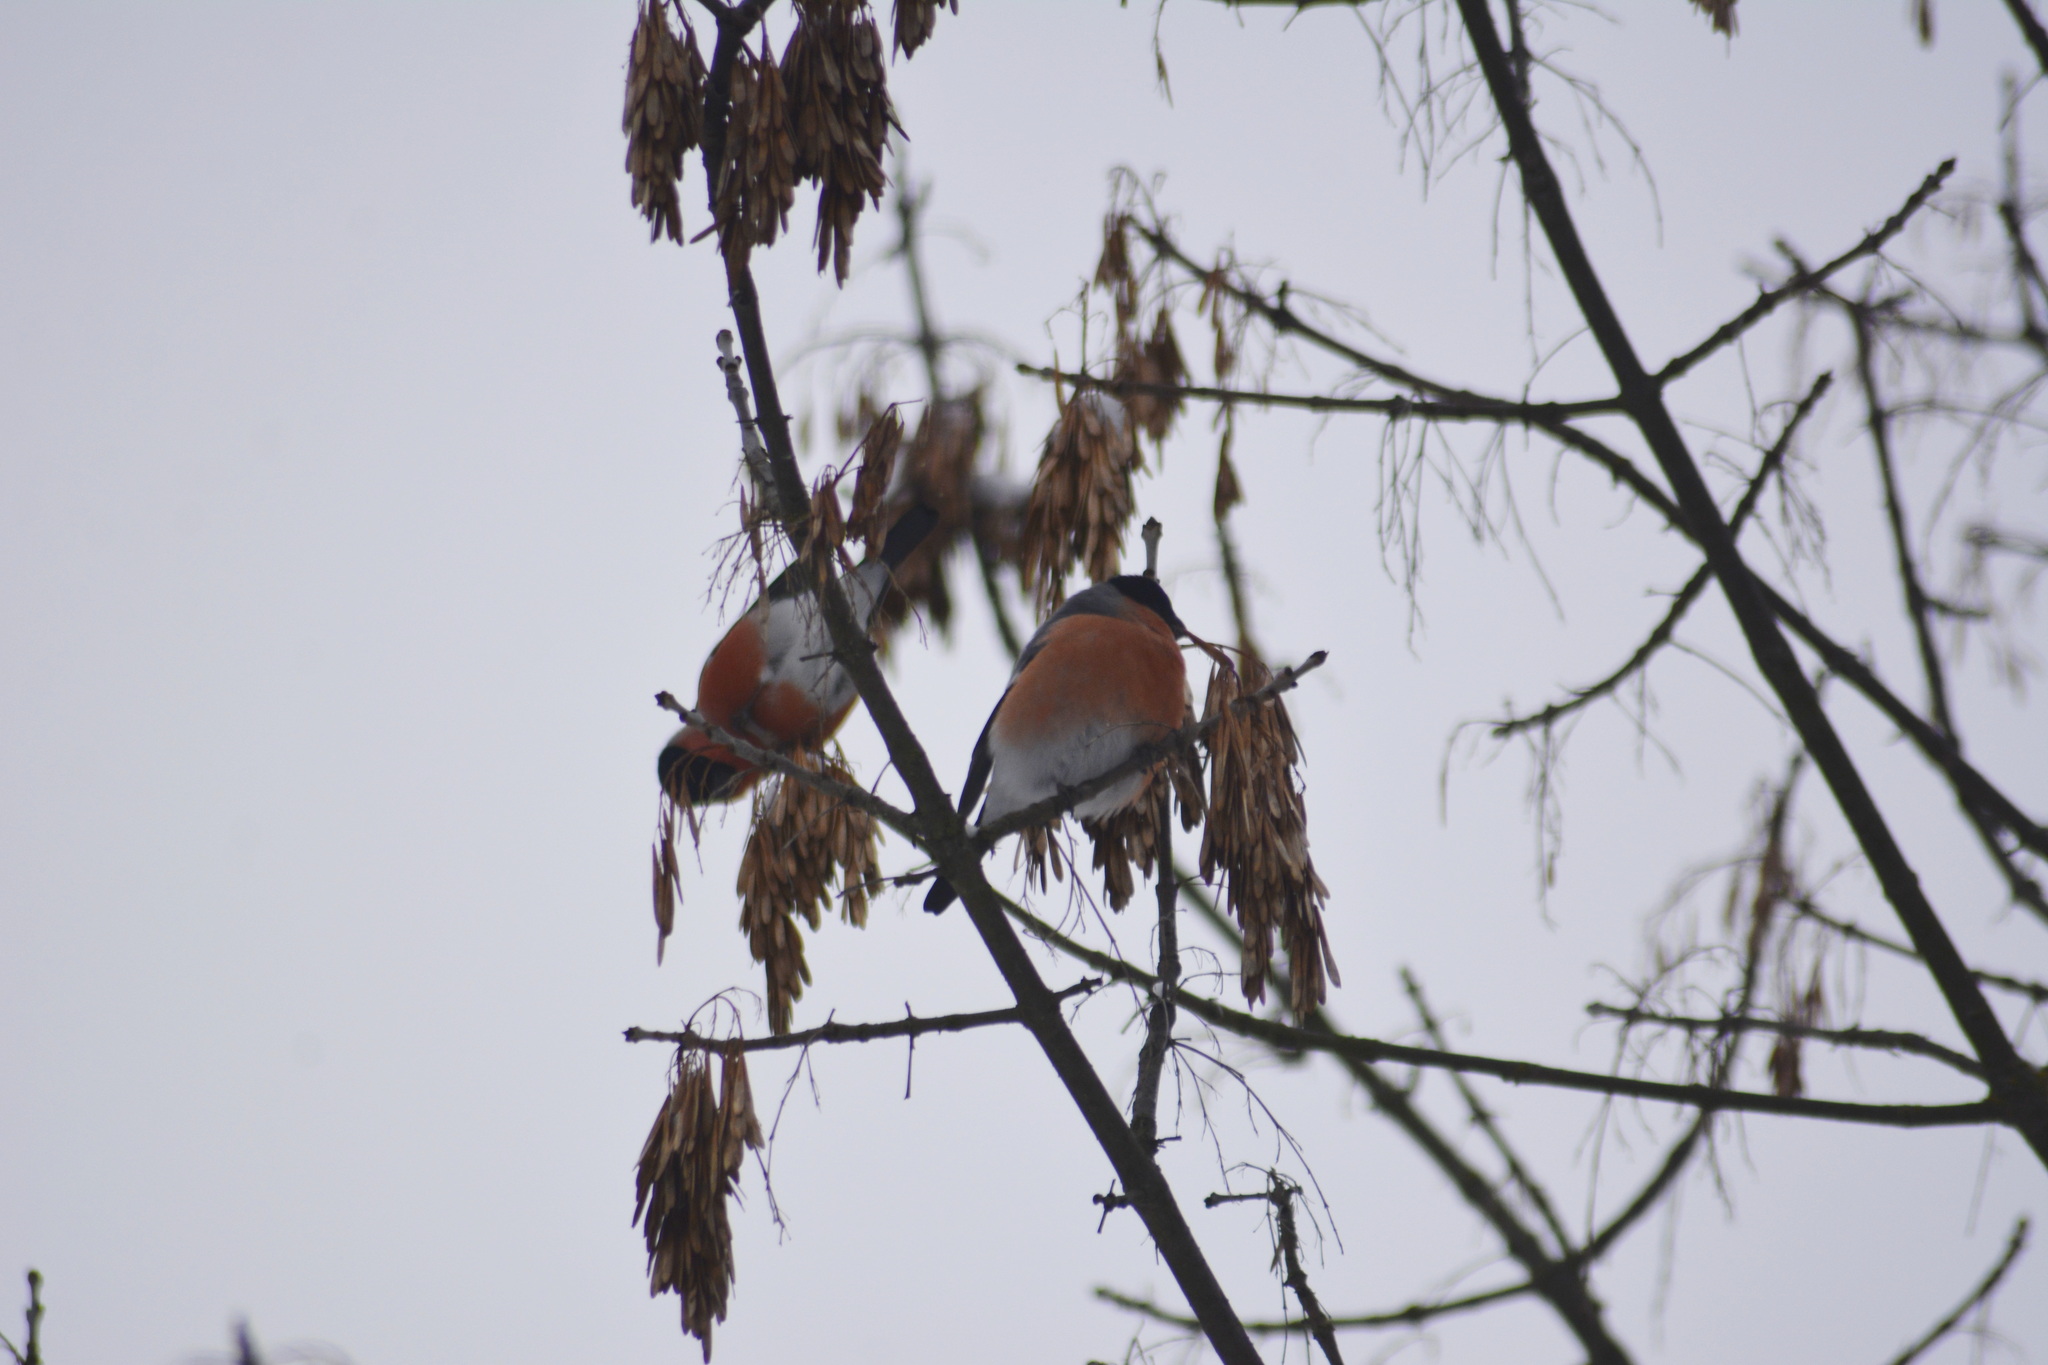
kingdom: Animalia
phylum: Chordata
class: Aves
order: Passeriformes
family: Fringillidae
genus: Pyrrhula
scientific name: Pyrrhula pyrrhula
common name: Eurasian bullfinch
